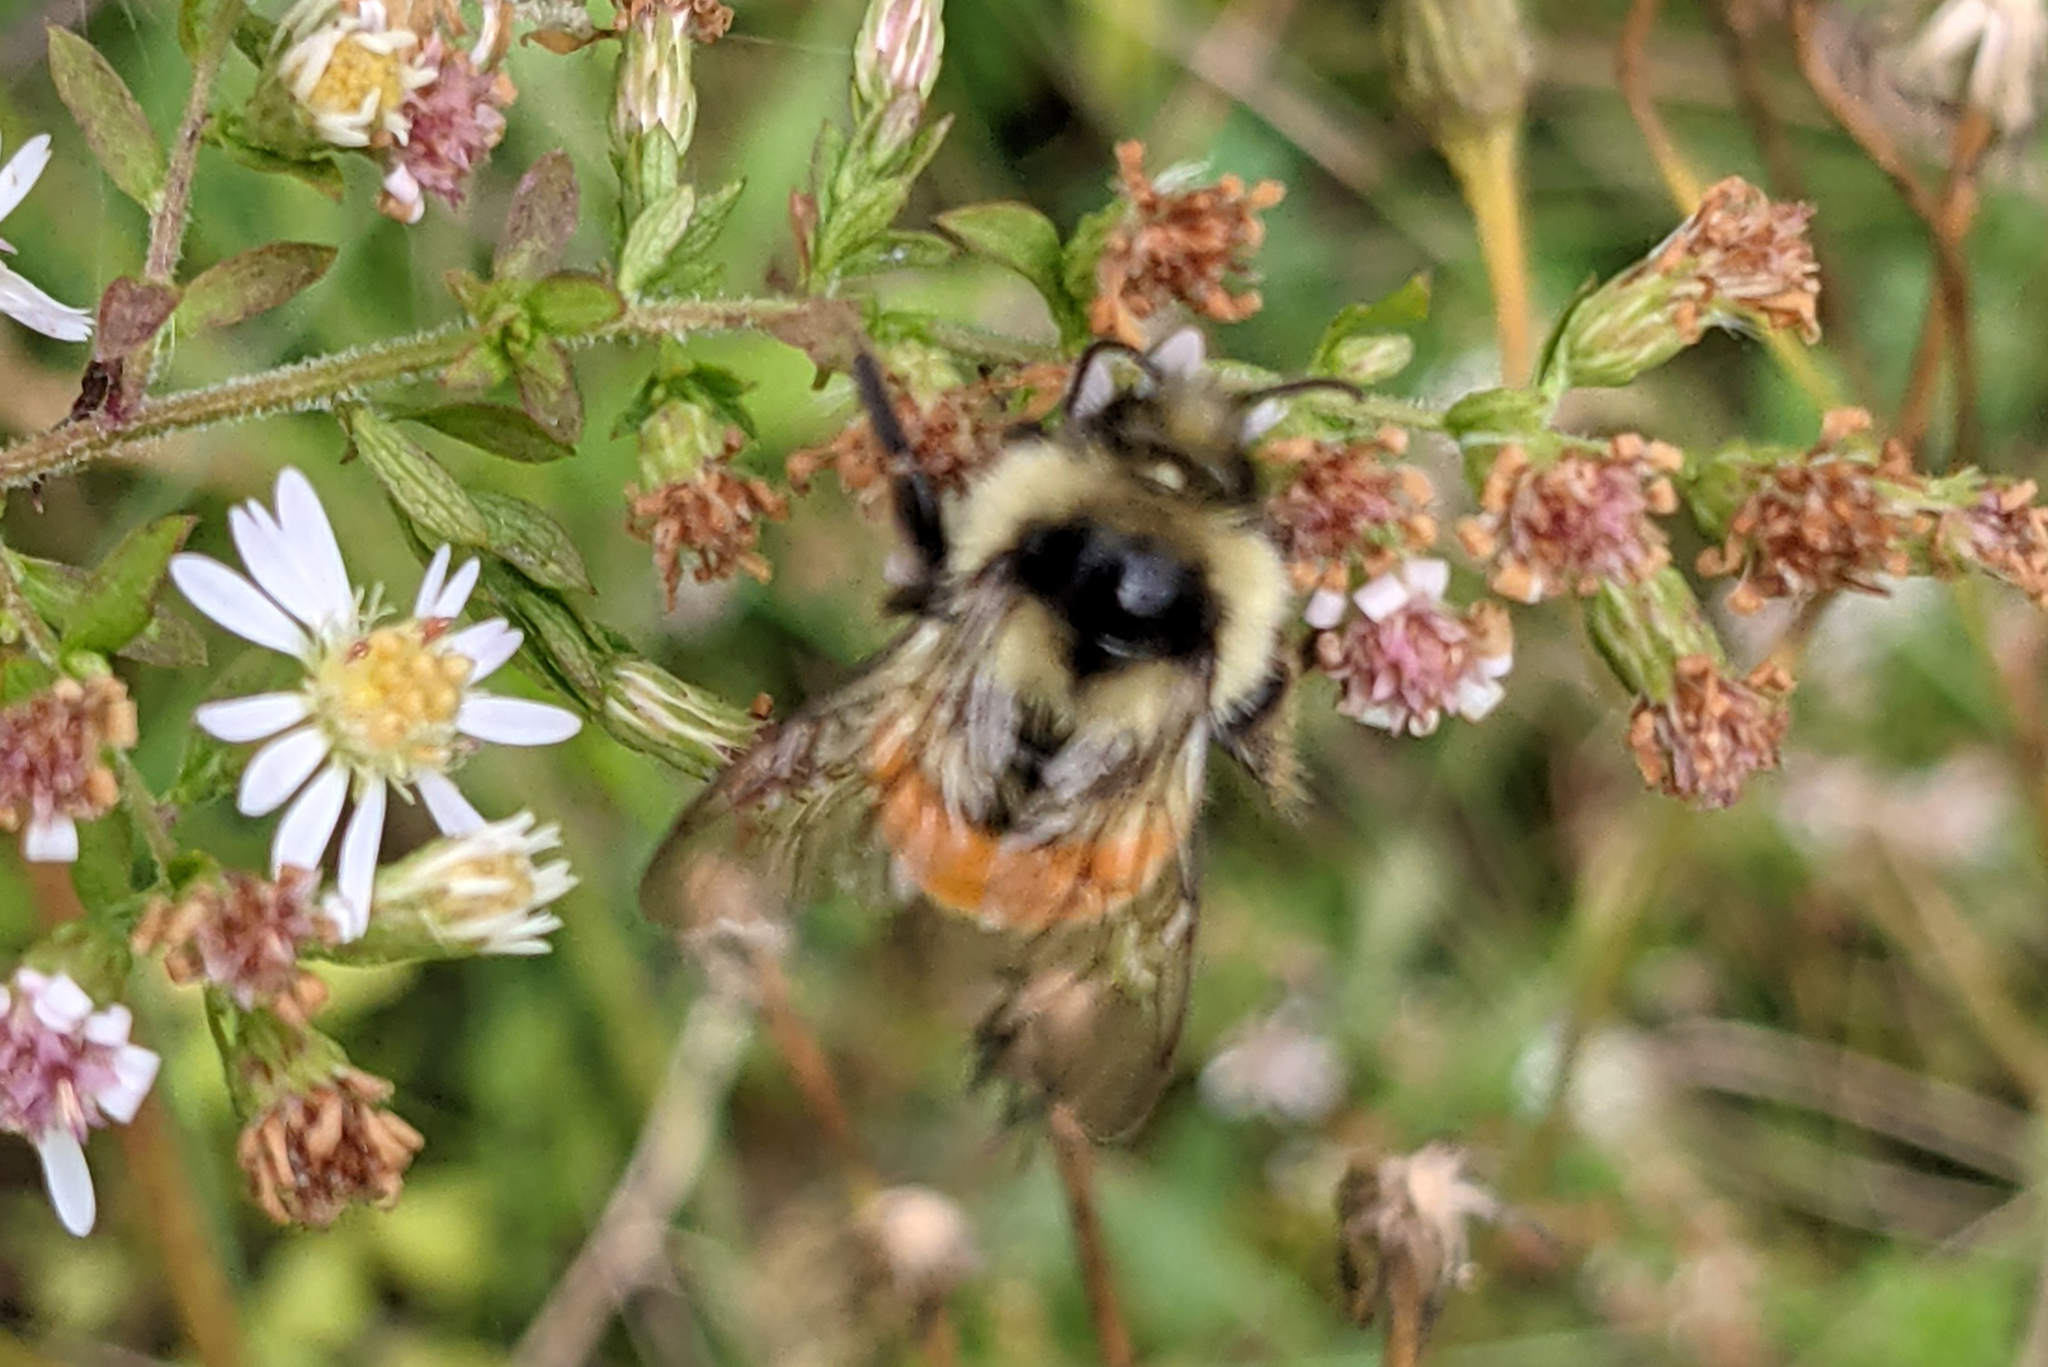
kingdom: Animalia
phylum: Arthropoda
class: Insecta
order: Hymenoptera
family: Apidae
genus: Bombus
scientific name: Bombus ternarius
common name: Tri-colored bumble bee
